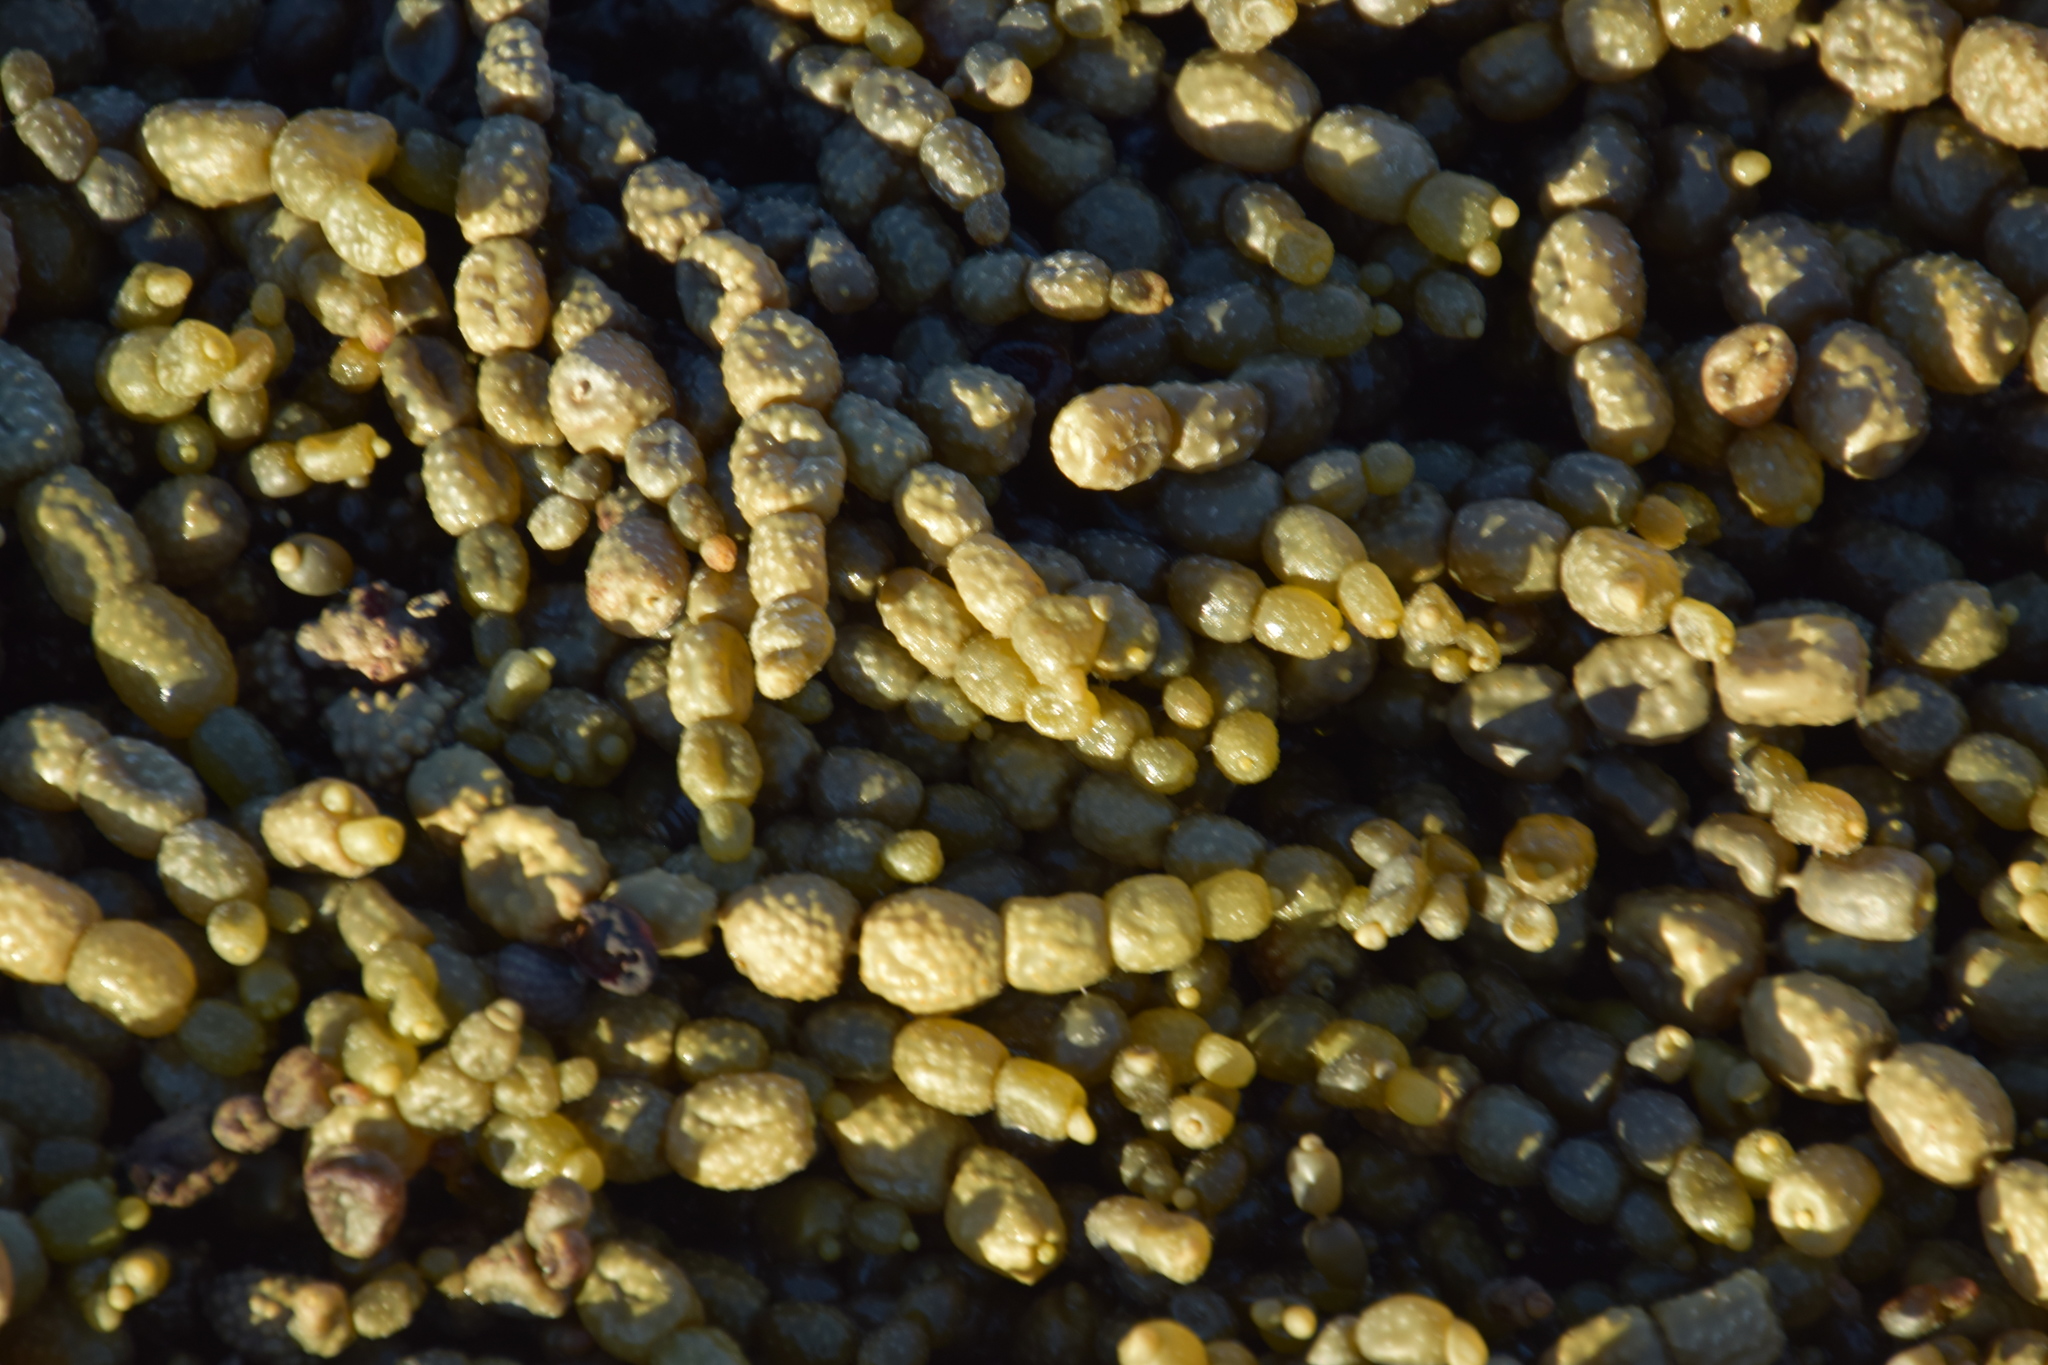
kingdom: Chromista
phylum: Ochrophyta
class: Phaeophyceae
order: Fucales
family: Hormosiraceae
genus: Hormosira
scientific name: Hormosira banksii
